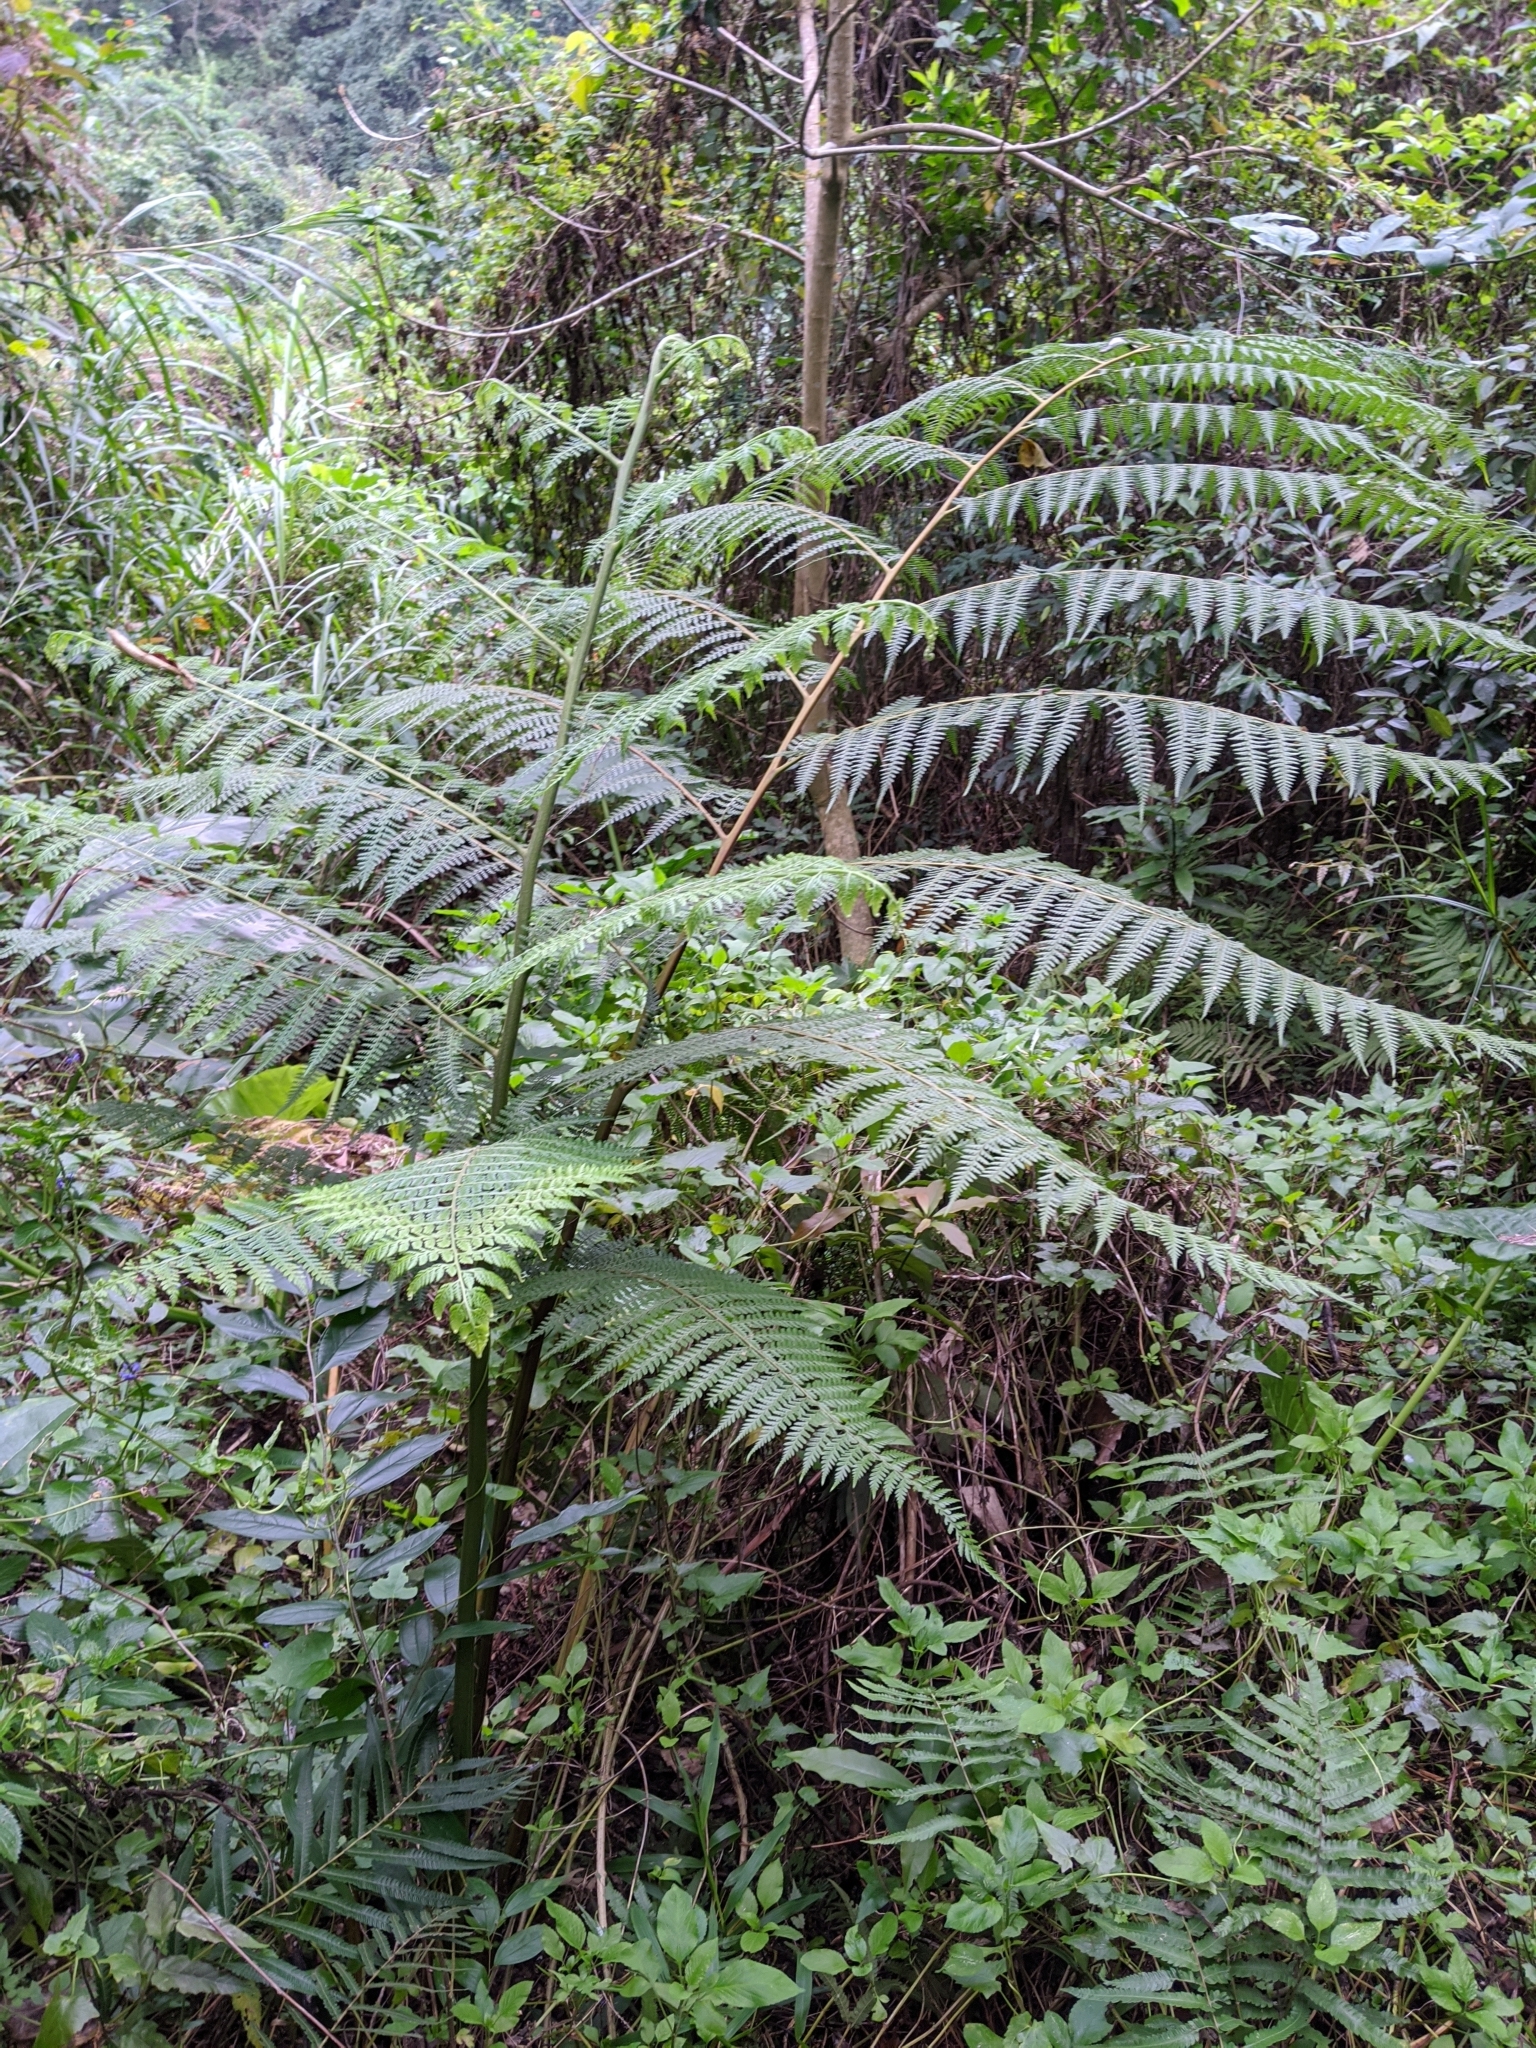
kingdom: Plantae
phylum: Tracheophyta
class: Polypodiopsida
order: Polypodiales
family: Dennstaedtiaceae
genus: Microlepia
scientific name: Microlepia smithii
